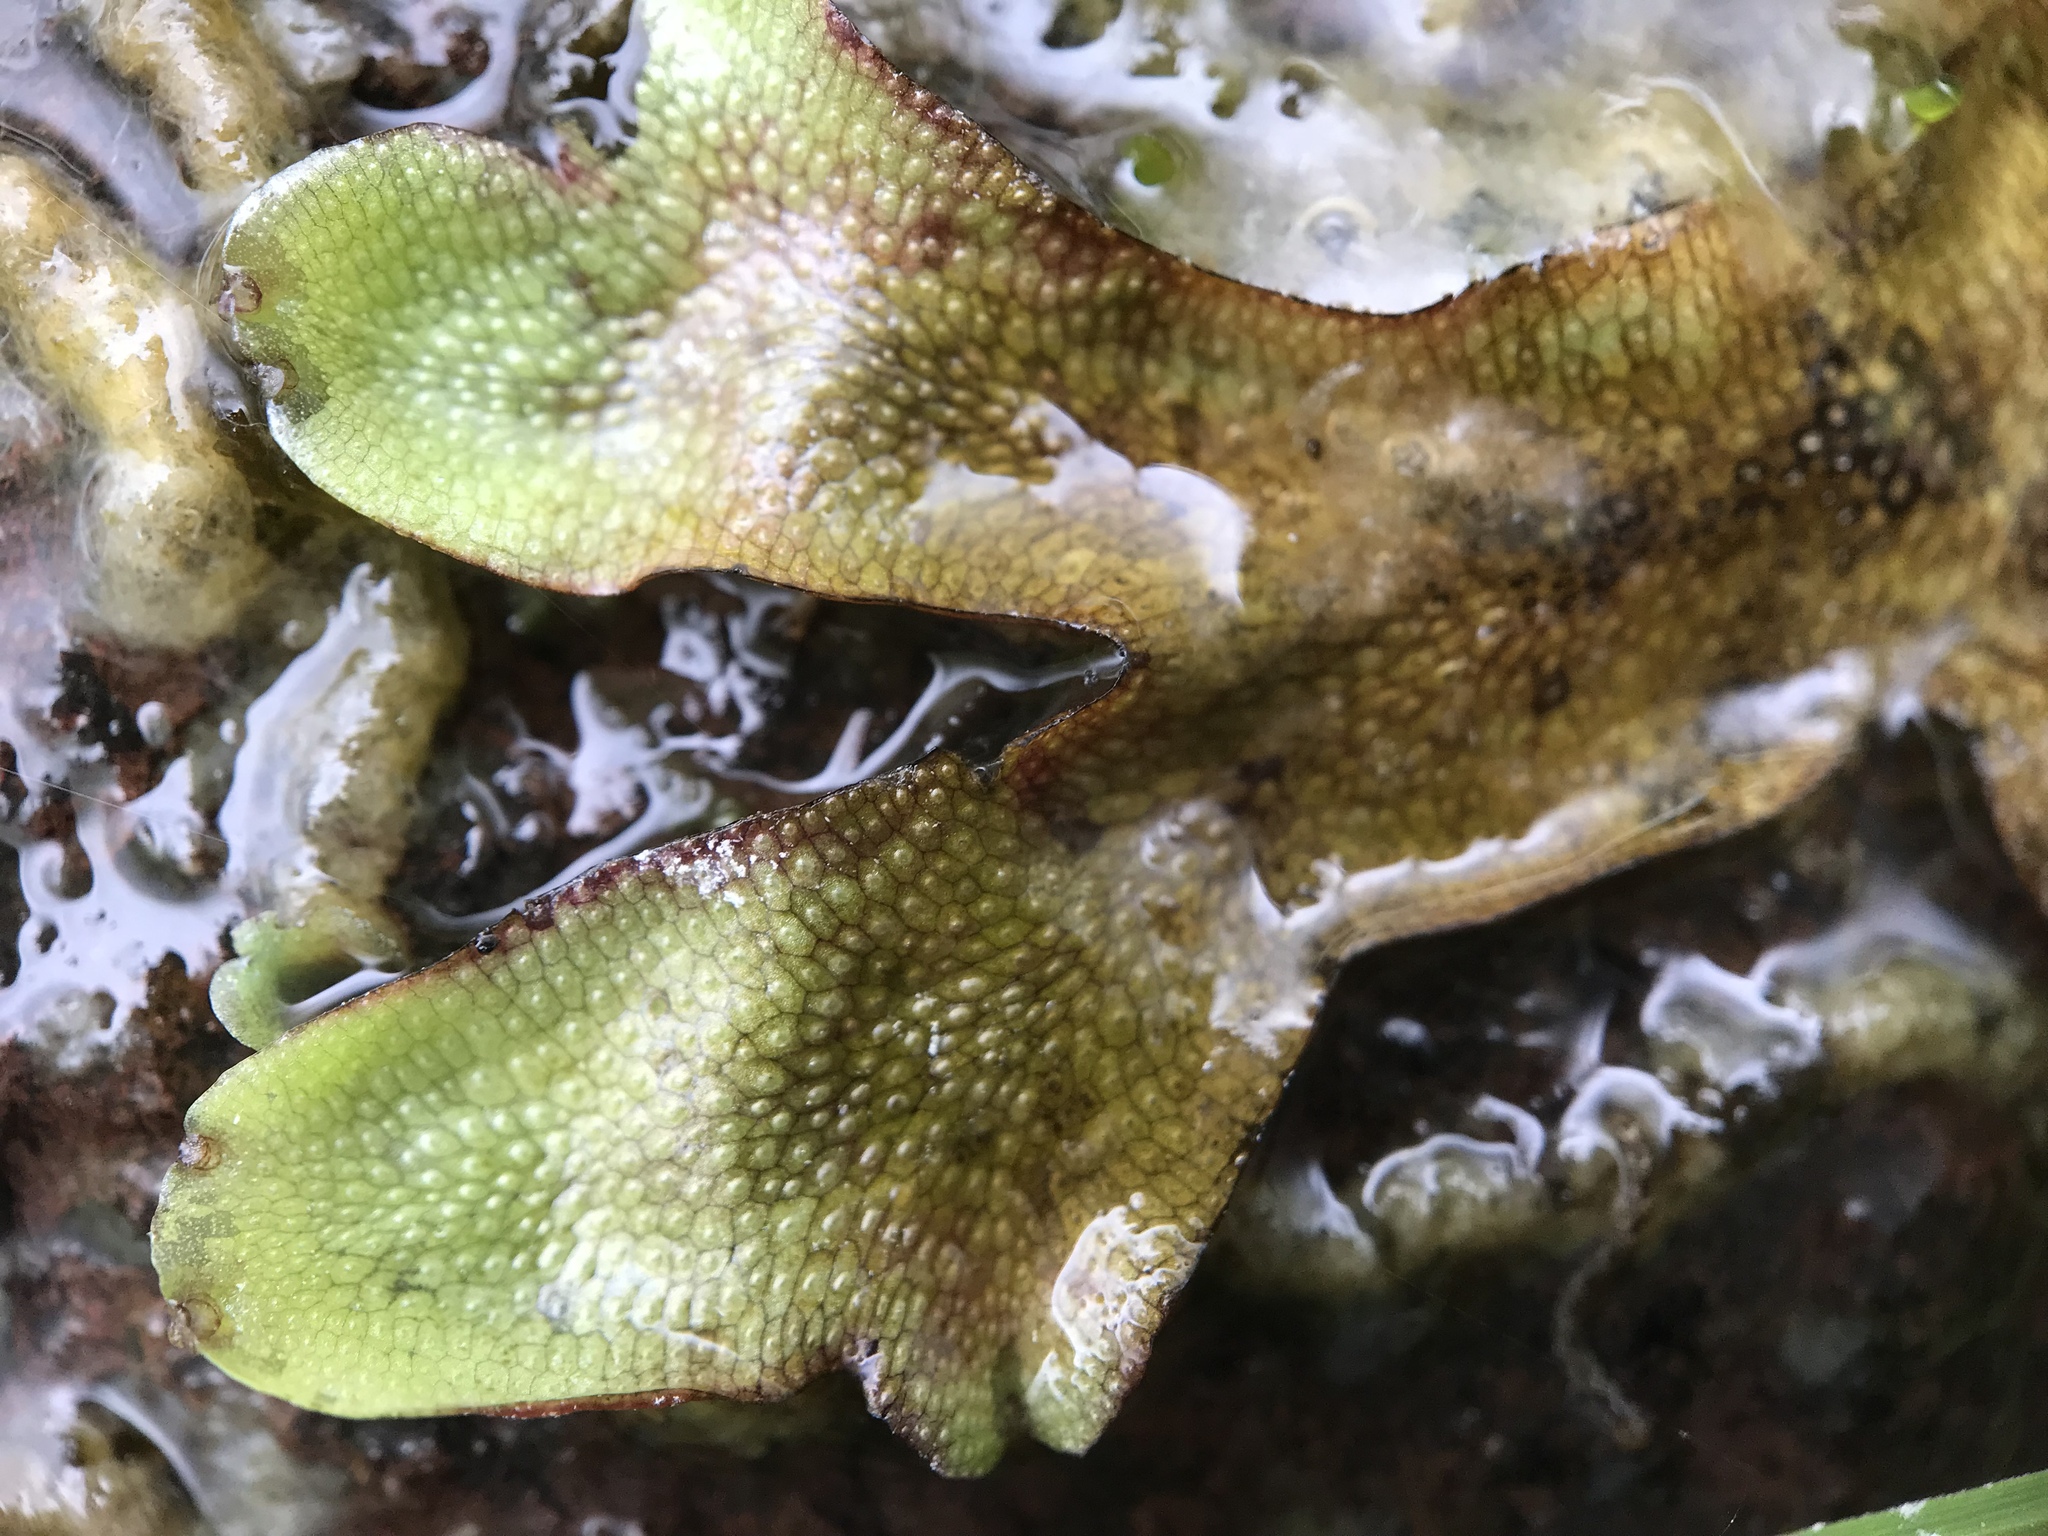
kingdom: Plantae
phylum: Marchantiophyta
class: Marchantiopsida
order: Marchantiales
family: Conocephalaceae
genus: Conocephalum
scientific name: Conocephalum conicum
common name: Great scented liverwort
